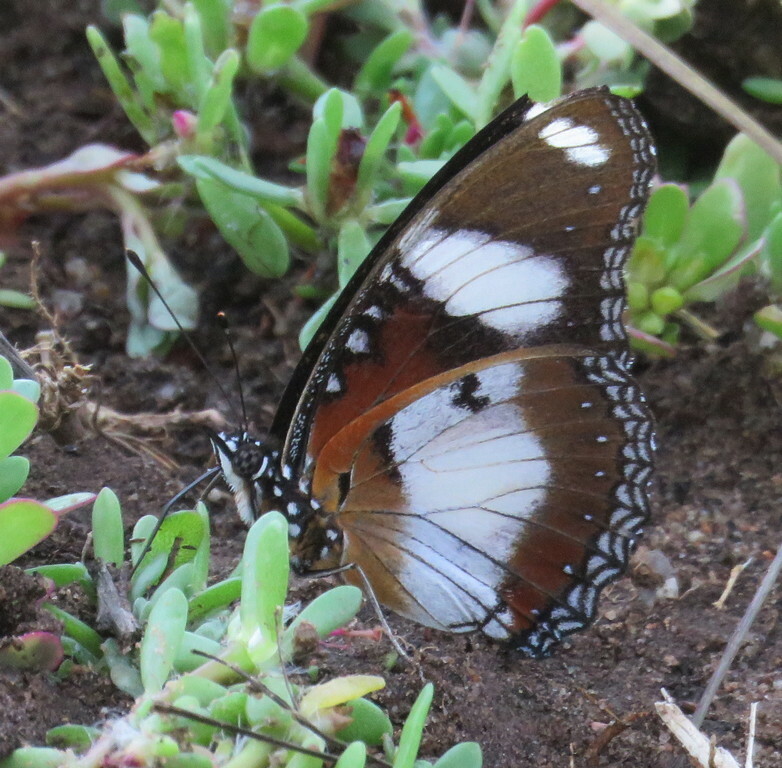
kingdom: Animalia
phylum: Arthropoda
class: Insecta
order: Lepidoptera
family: Nymphalidae
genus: Hypolimnas
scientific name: Hypolimnas misippus
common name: False plain tiger
